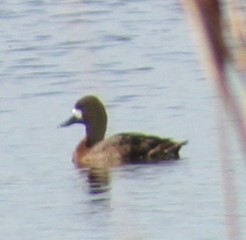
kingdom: Animalia
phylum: Chordata
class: Aves
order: Anseriformes
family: Anatidae
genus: Aythya
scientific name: Aythya affinis
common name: Lesser scaup
